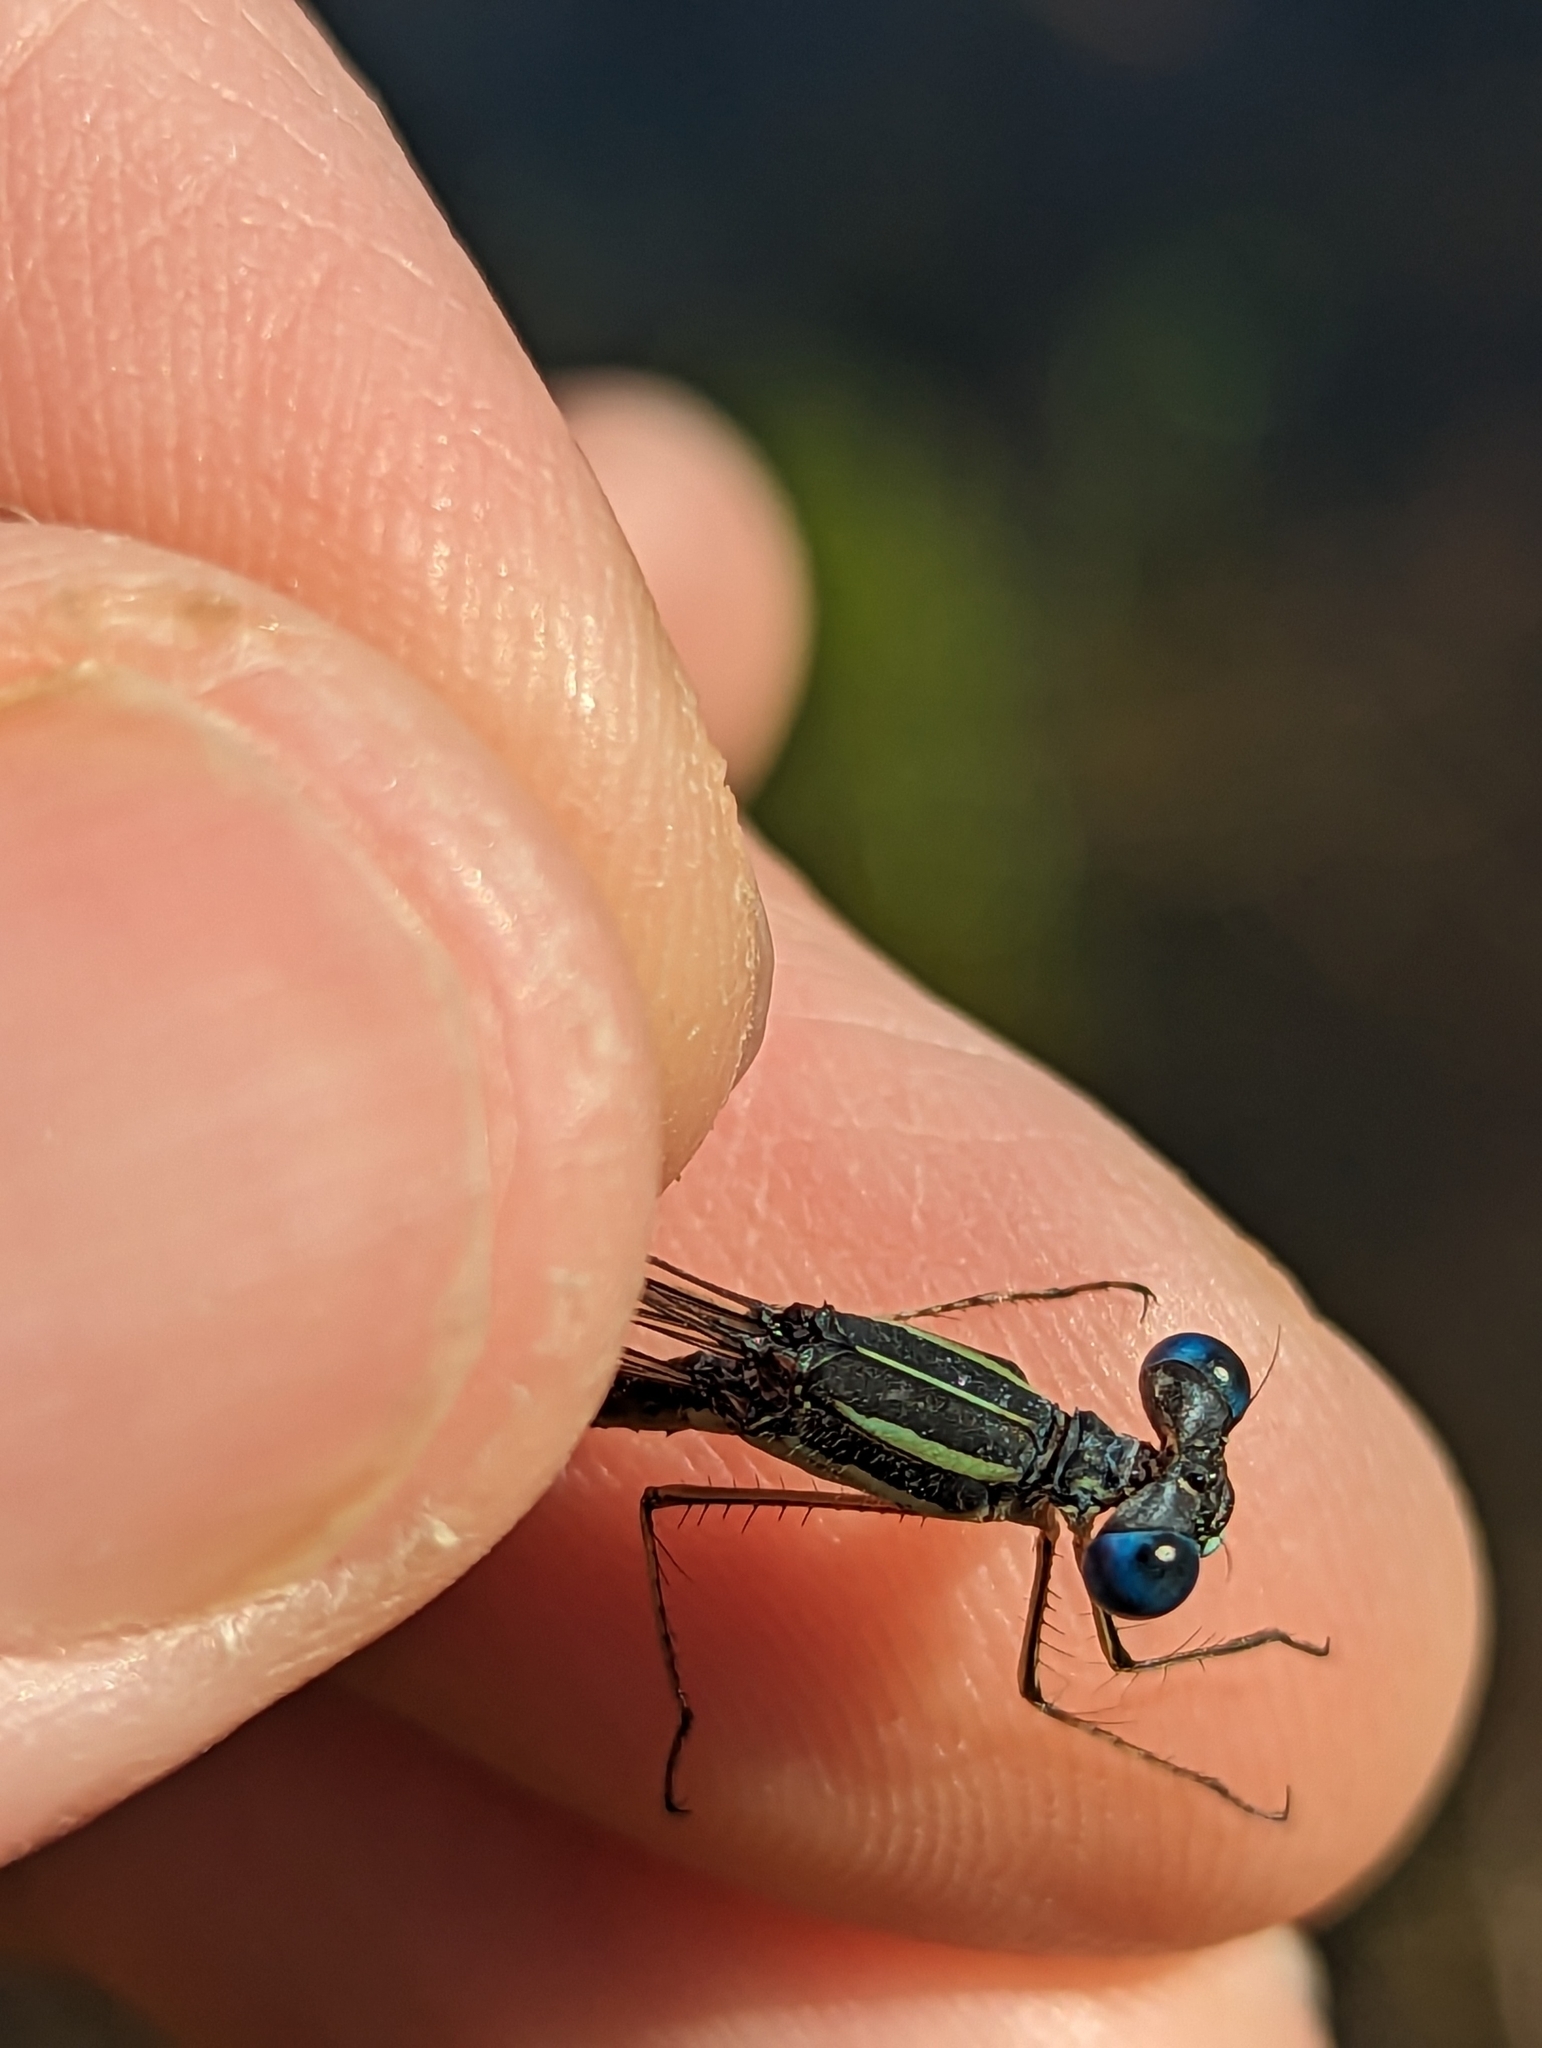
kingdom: Animalia
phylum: Arthropoda
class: Insecta
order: Odonata
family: Lestidae
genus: Lestes
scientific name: Lestes rectangularis
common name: Slender spreadwing
